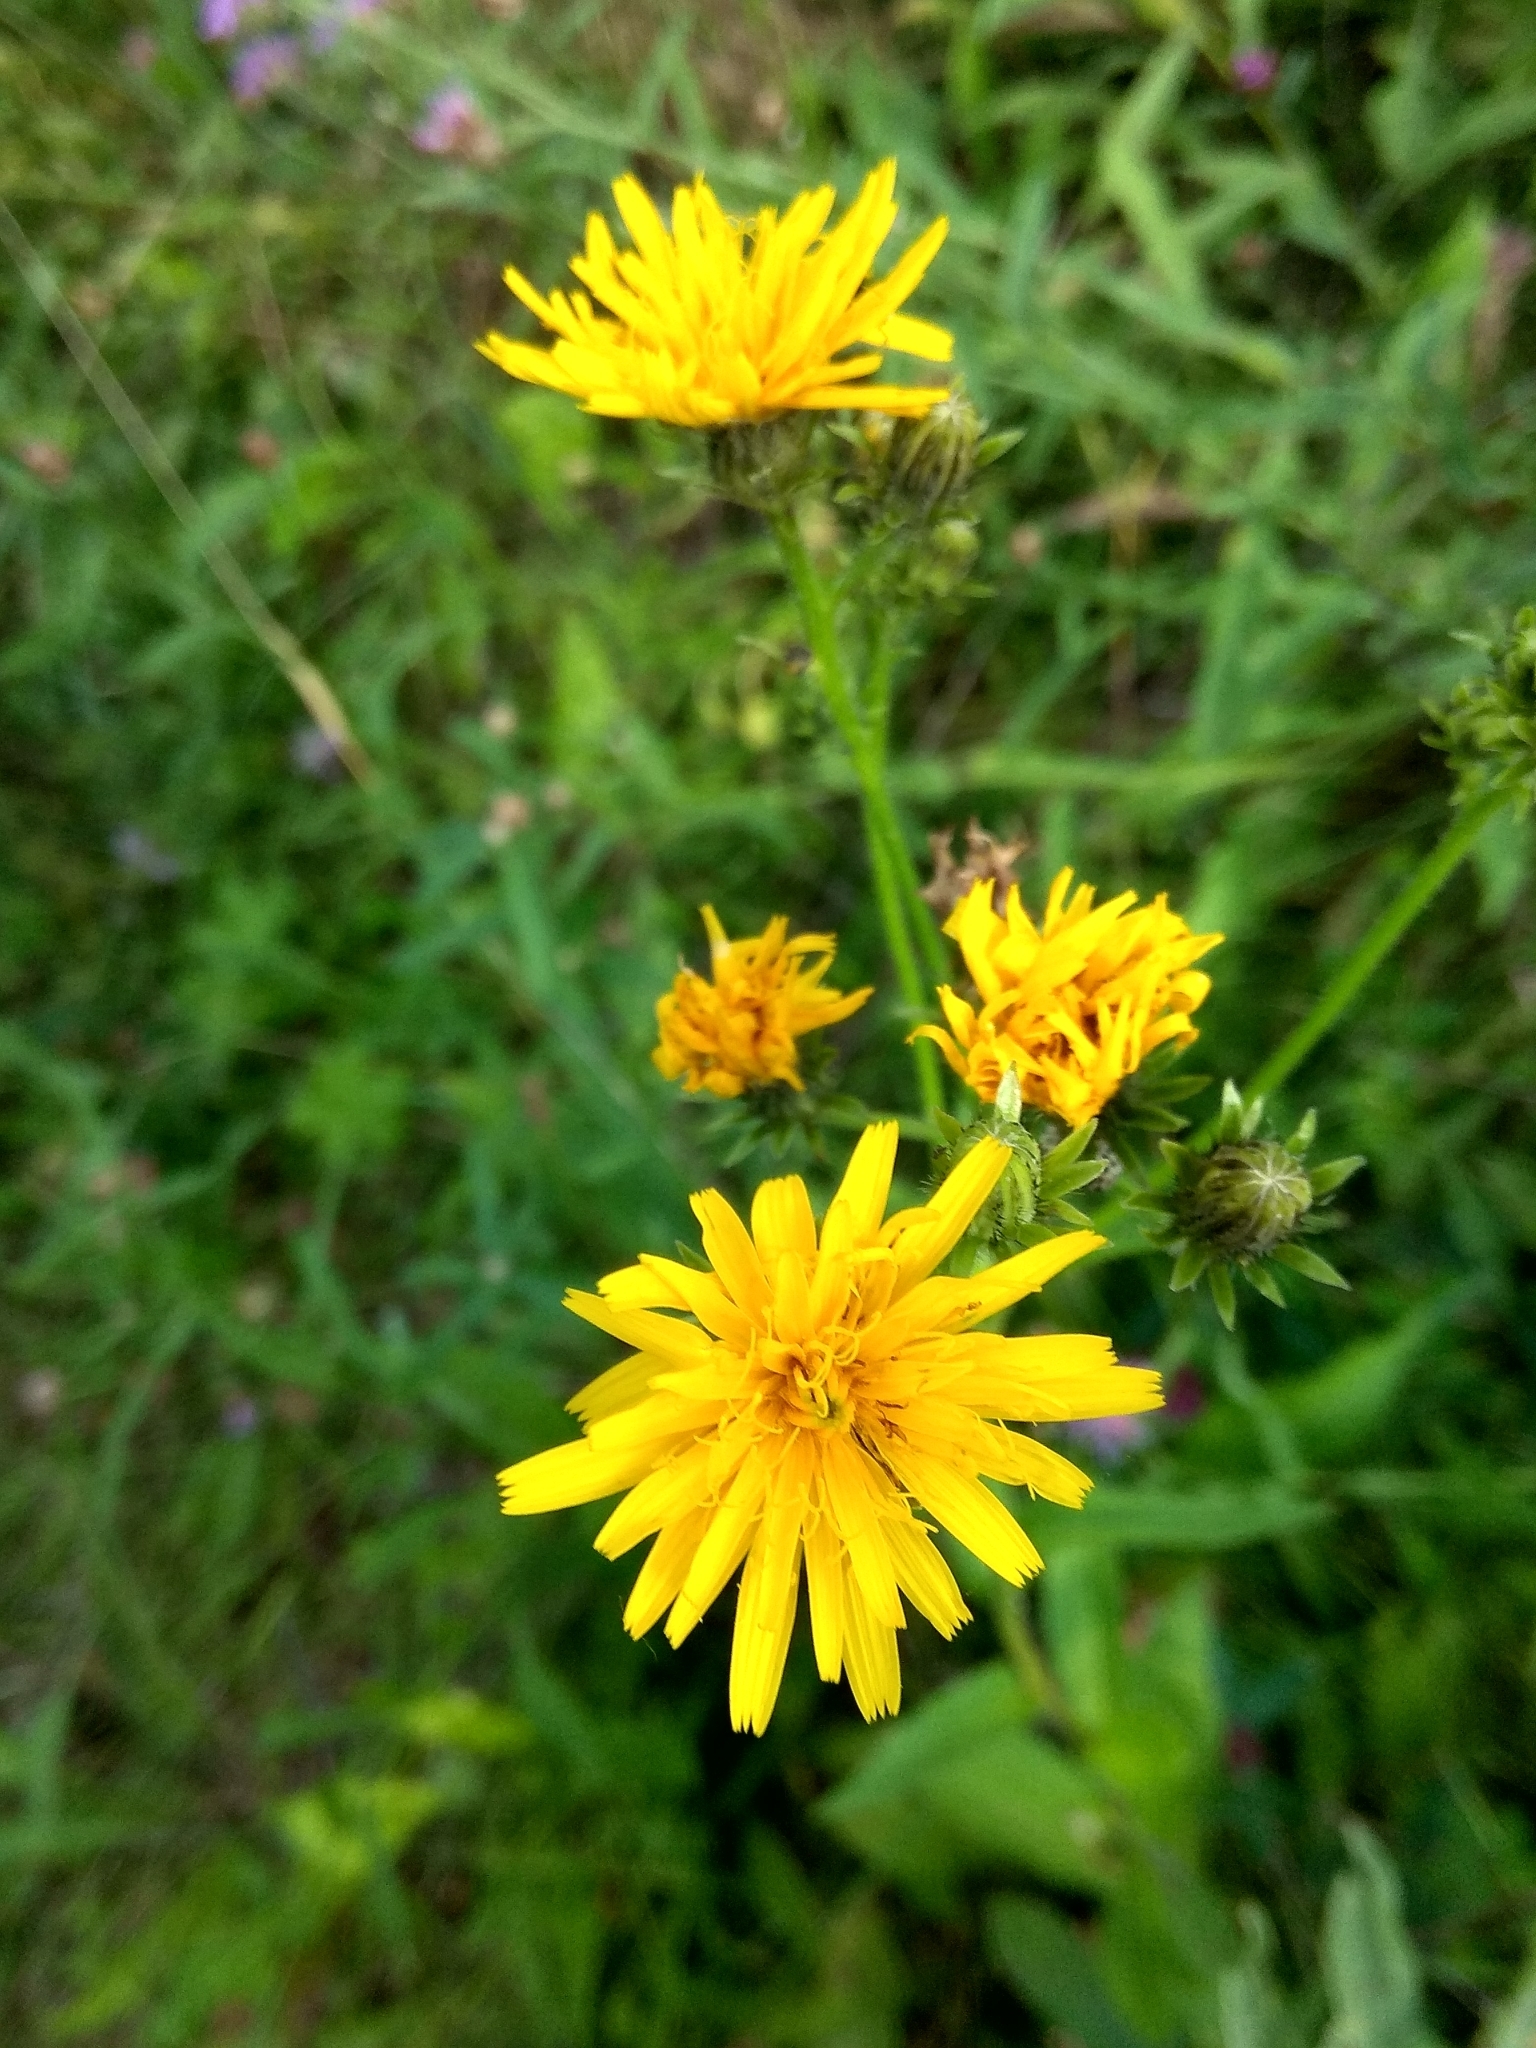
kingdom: Plantae
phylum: Tracheophyta
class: Magnoliopsida
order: Asterales
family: Asteraceae
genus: Picris
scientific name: Picris hieracioides
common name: Hawkweed oxtongue
